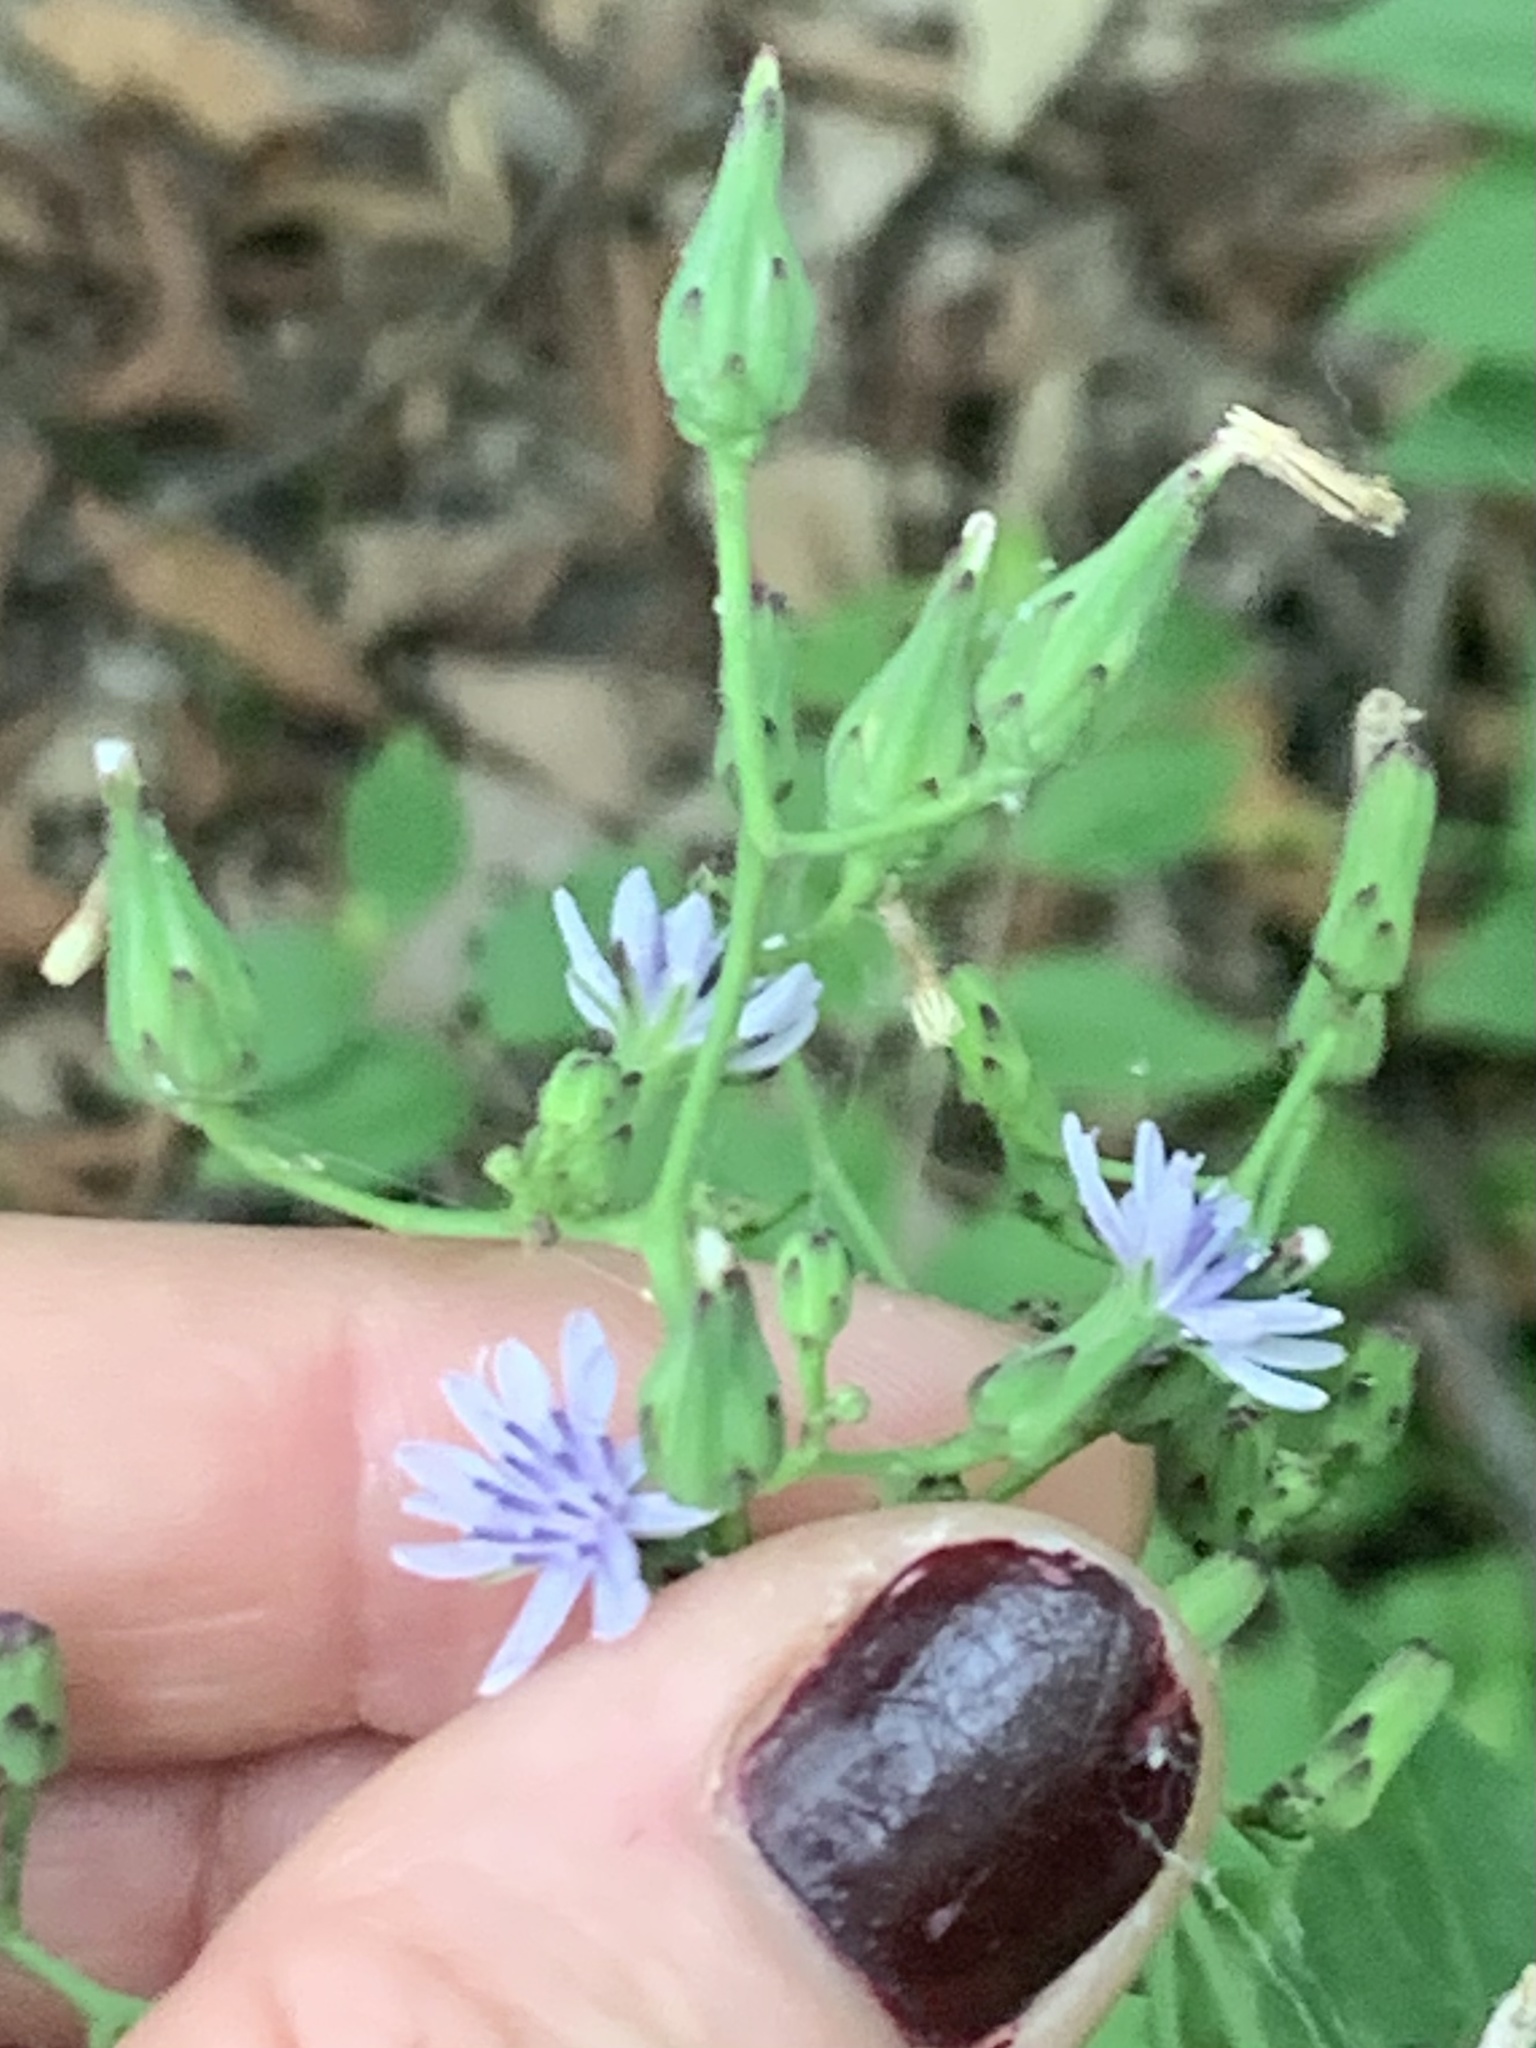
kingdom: Plantae
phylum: Tracheophyta
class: Magnoliopsida
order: Asterales
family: Asteraceae
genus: Lactuca
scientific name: Lactuca floridana
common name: Woodland lettuce
